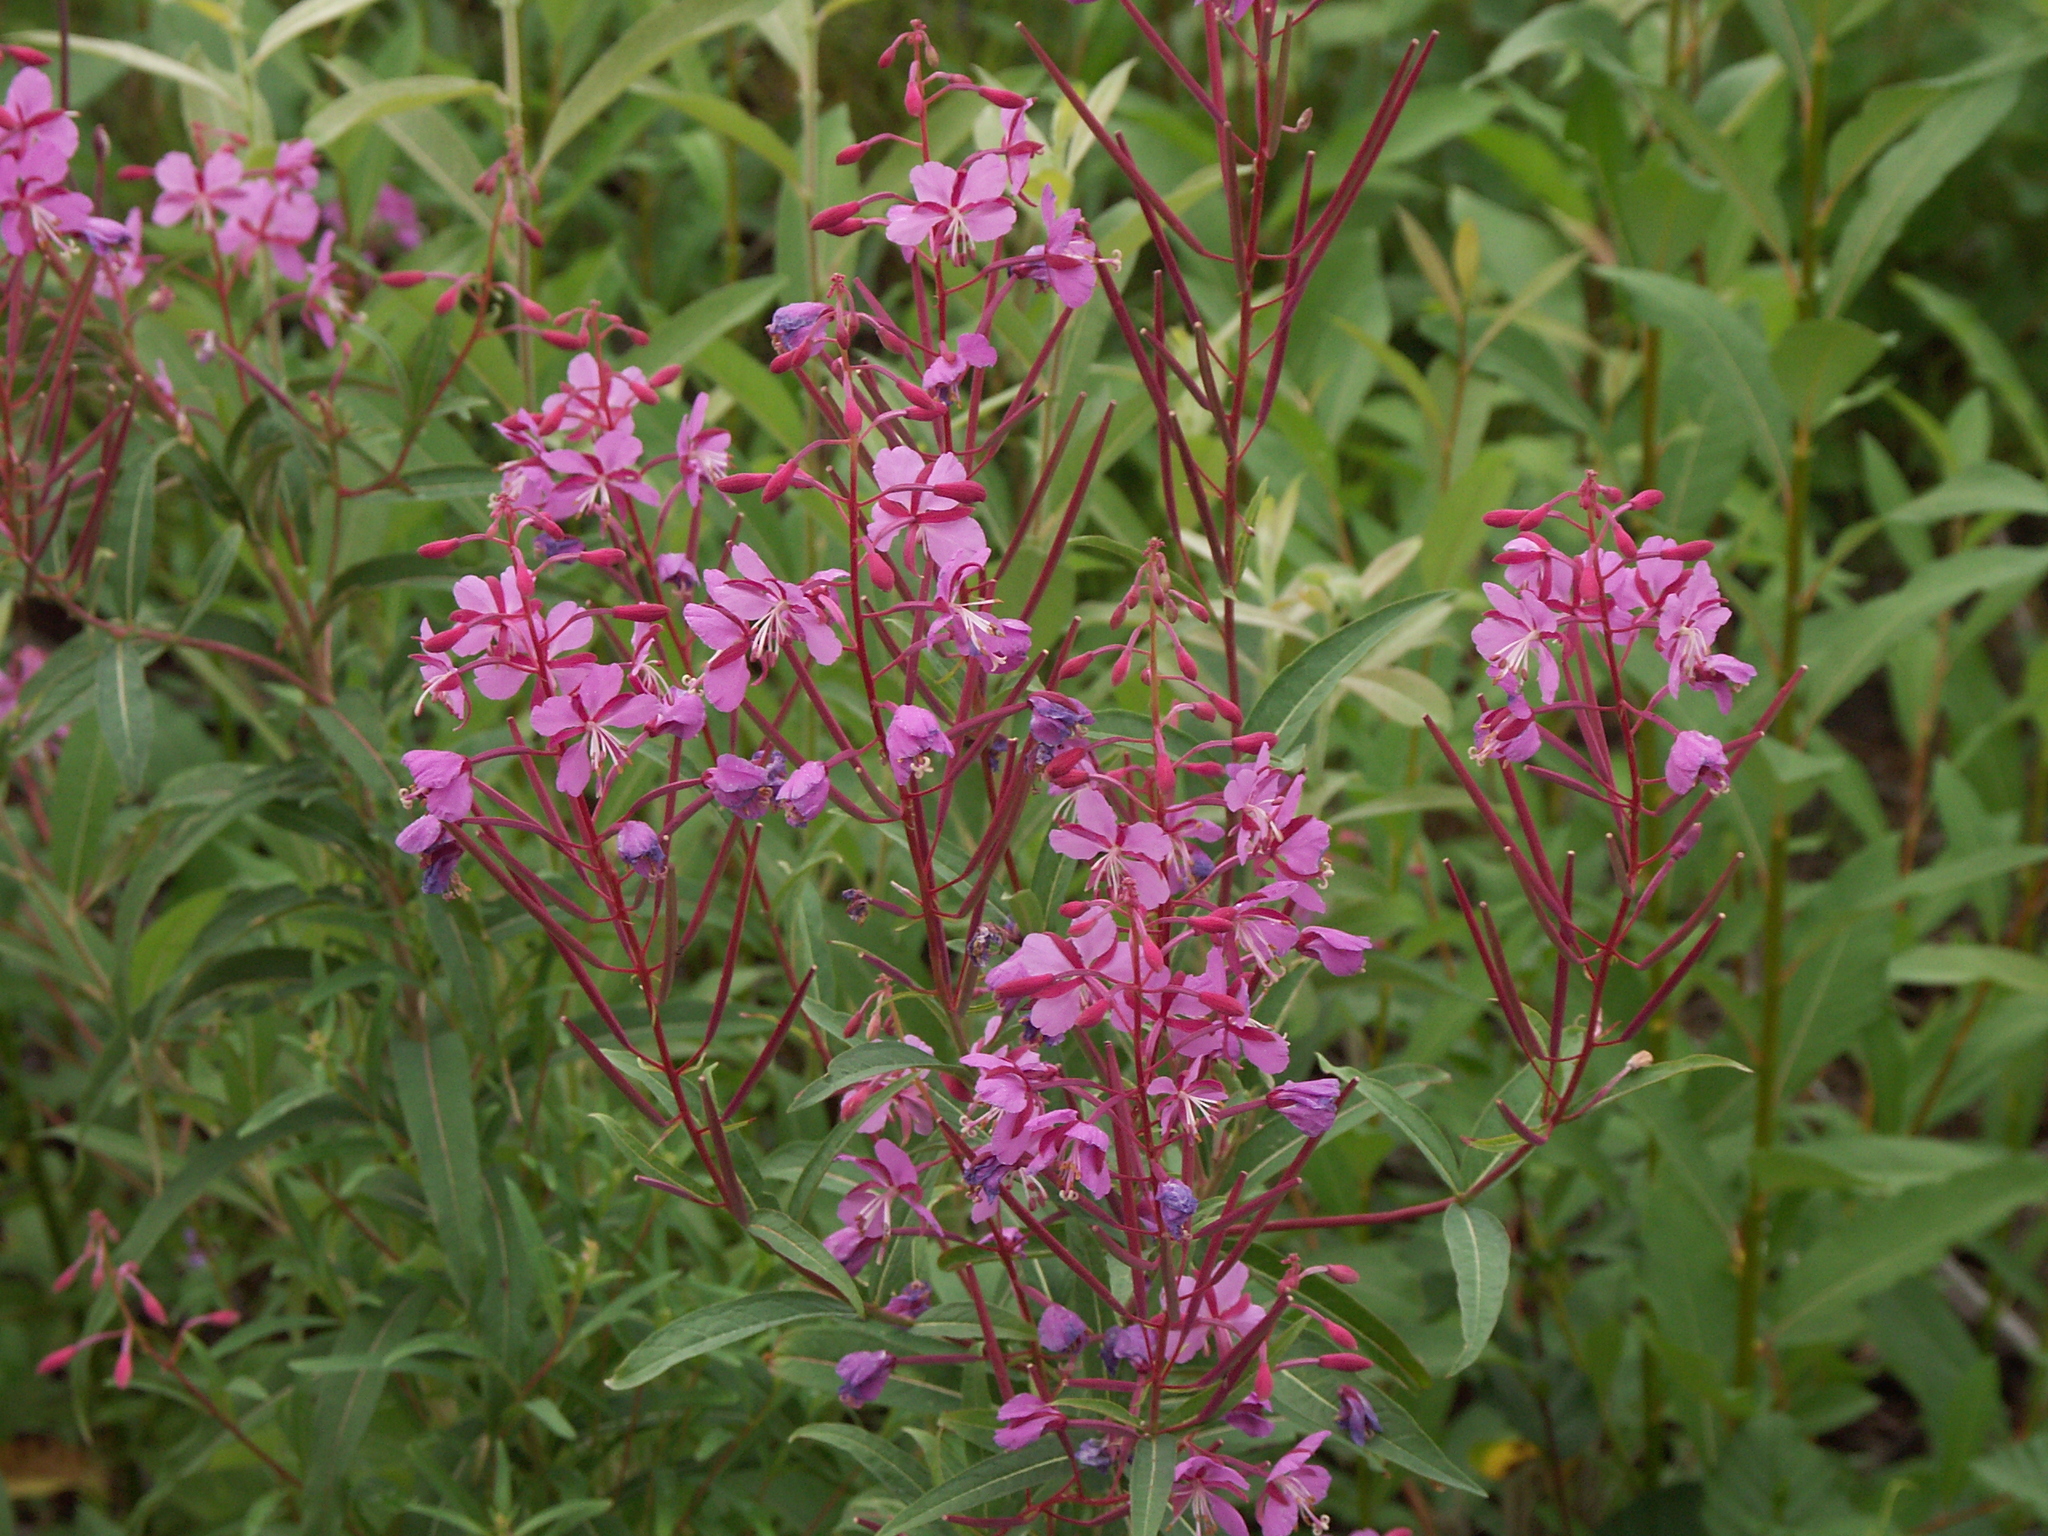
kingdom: Plantae
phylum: Tracheophyta
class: Magnoliopsida
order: Myrtales
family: Onagraceae
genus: Chamaenerion
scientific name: Chamaenerion angustifolium
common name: Fireweed
